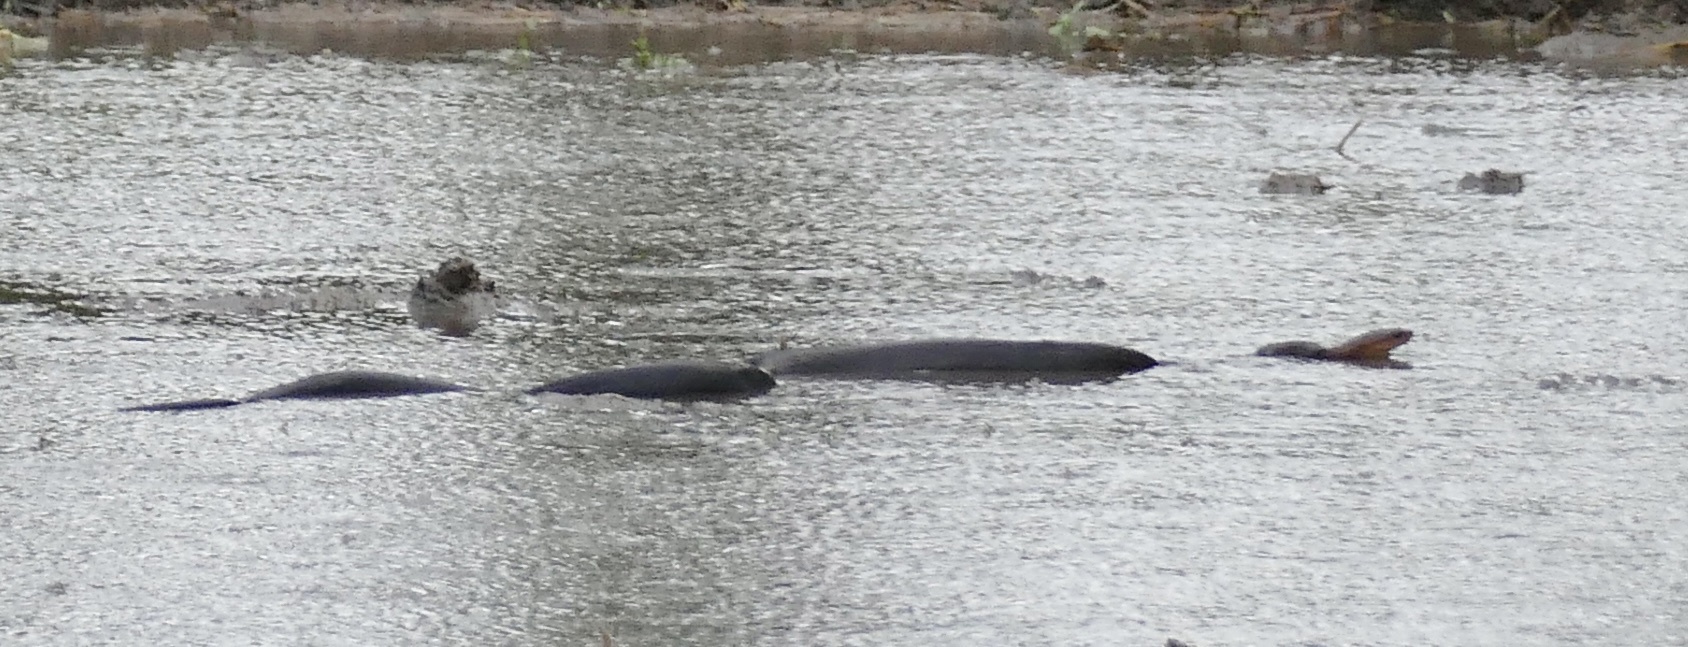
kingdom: Animalia
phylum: Chordata
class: Squamata
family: Colubridae
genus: Coelognathus
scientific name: Coelognathus erythrurus
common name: Reddish rat snake
